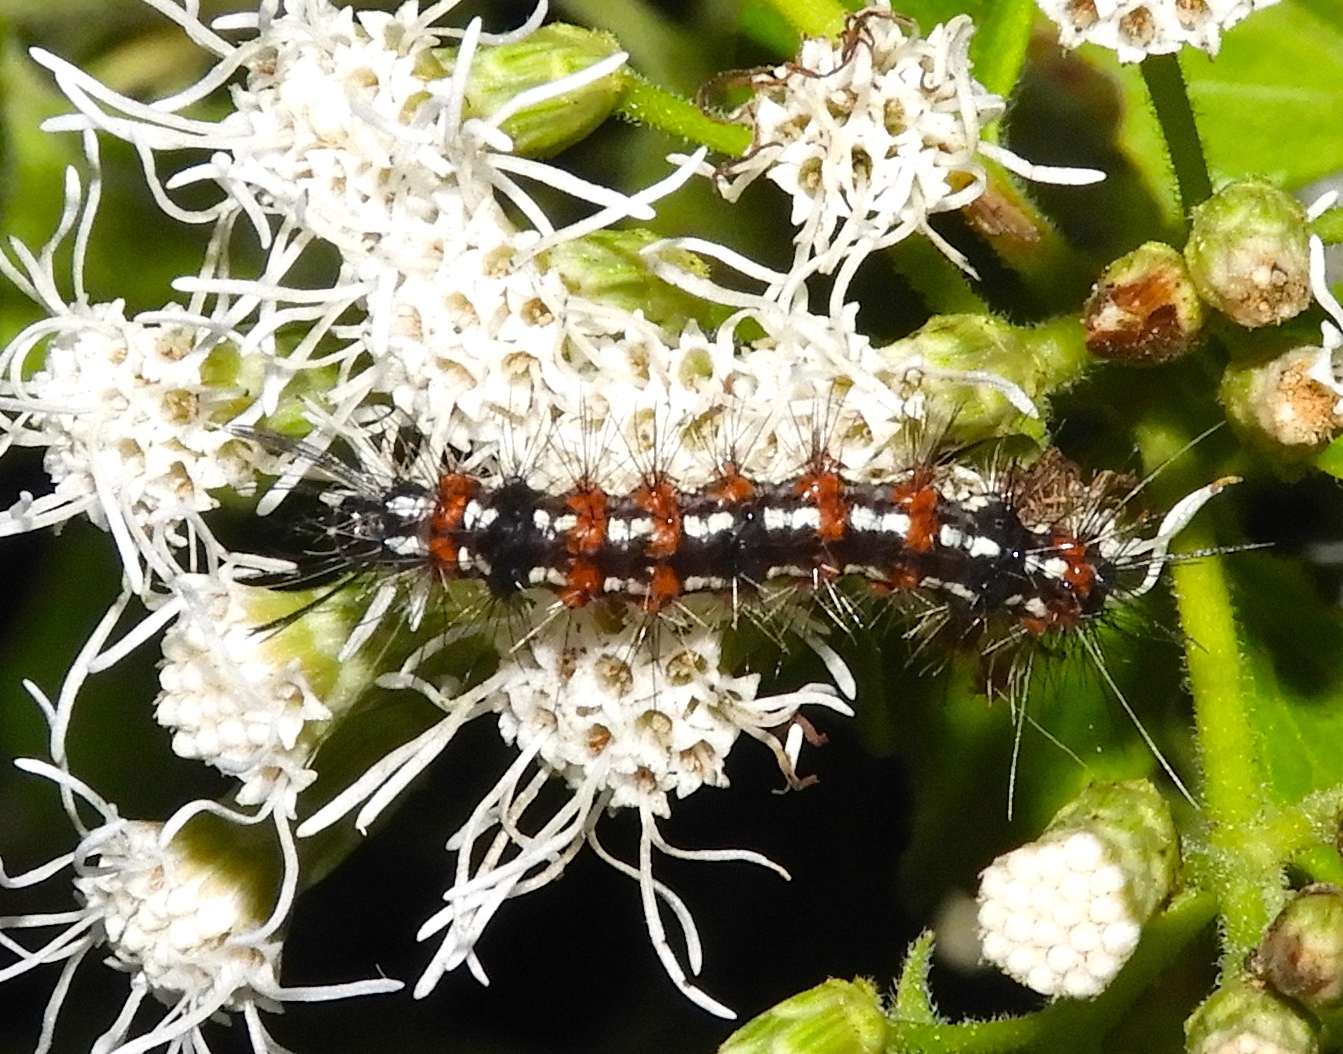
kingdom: Animalia
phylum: Arthropoda
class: Insecta
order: Lepidoptera
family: Erebidae
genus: Pareuchaetes
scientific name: Pareuchaetes insulata
